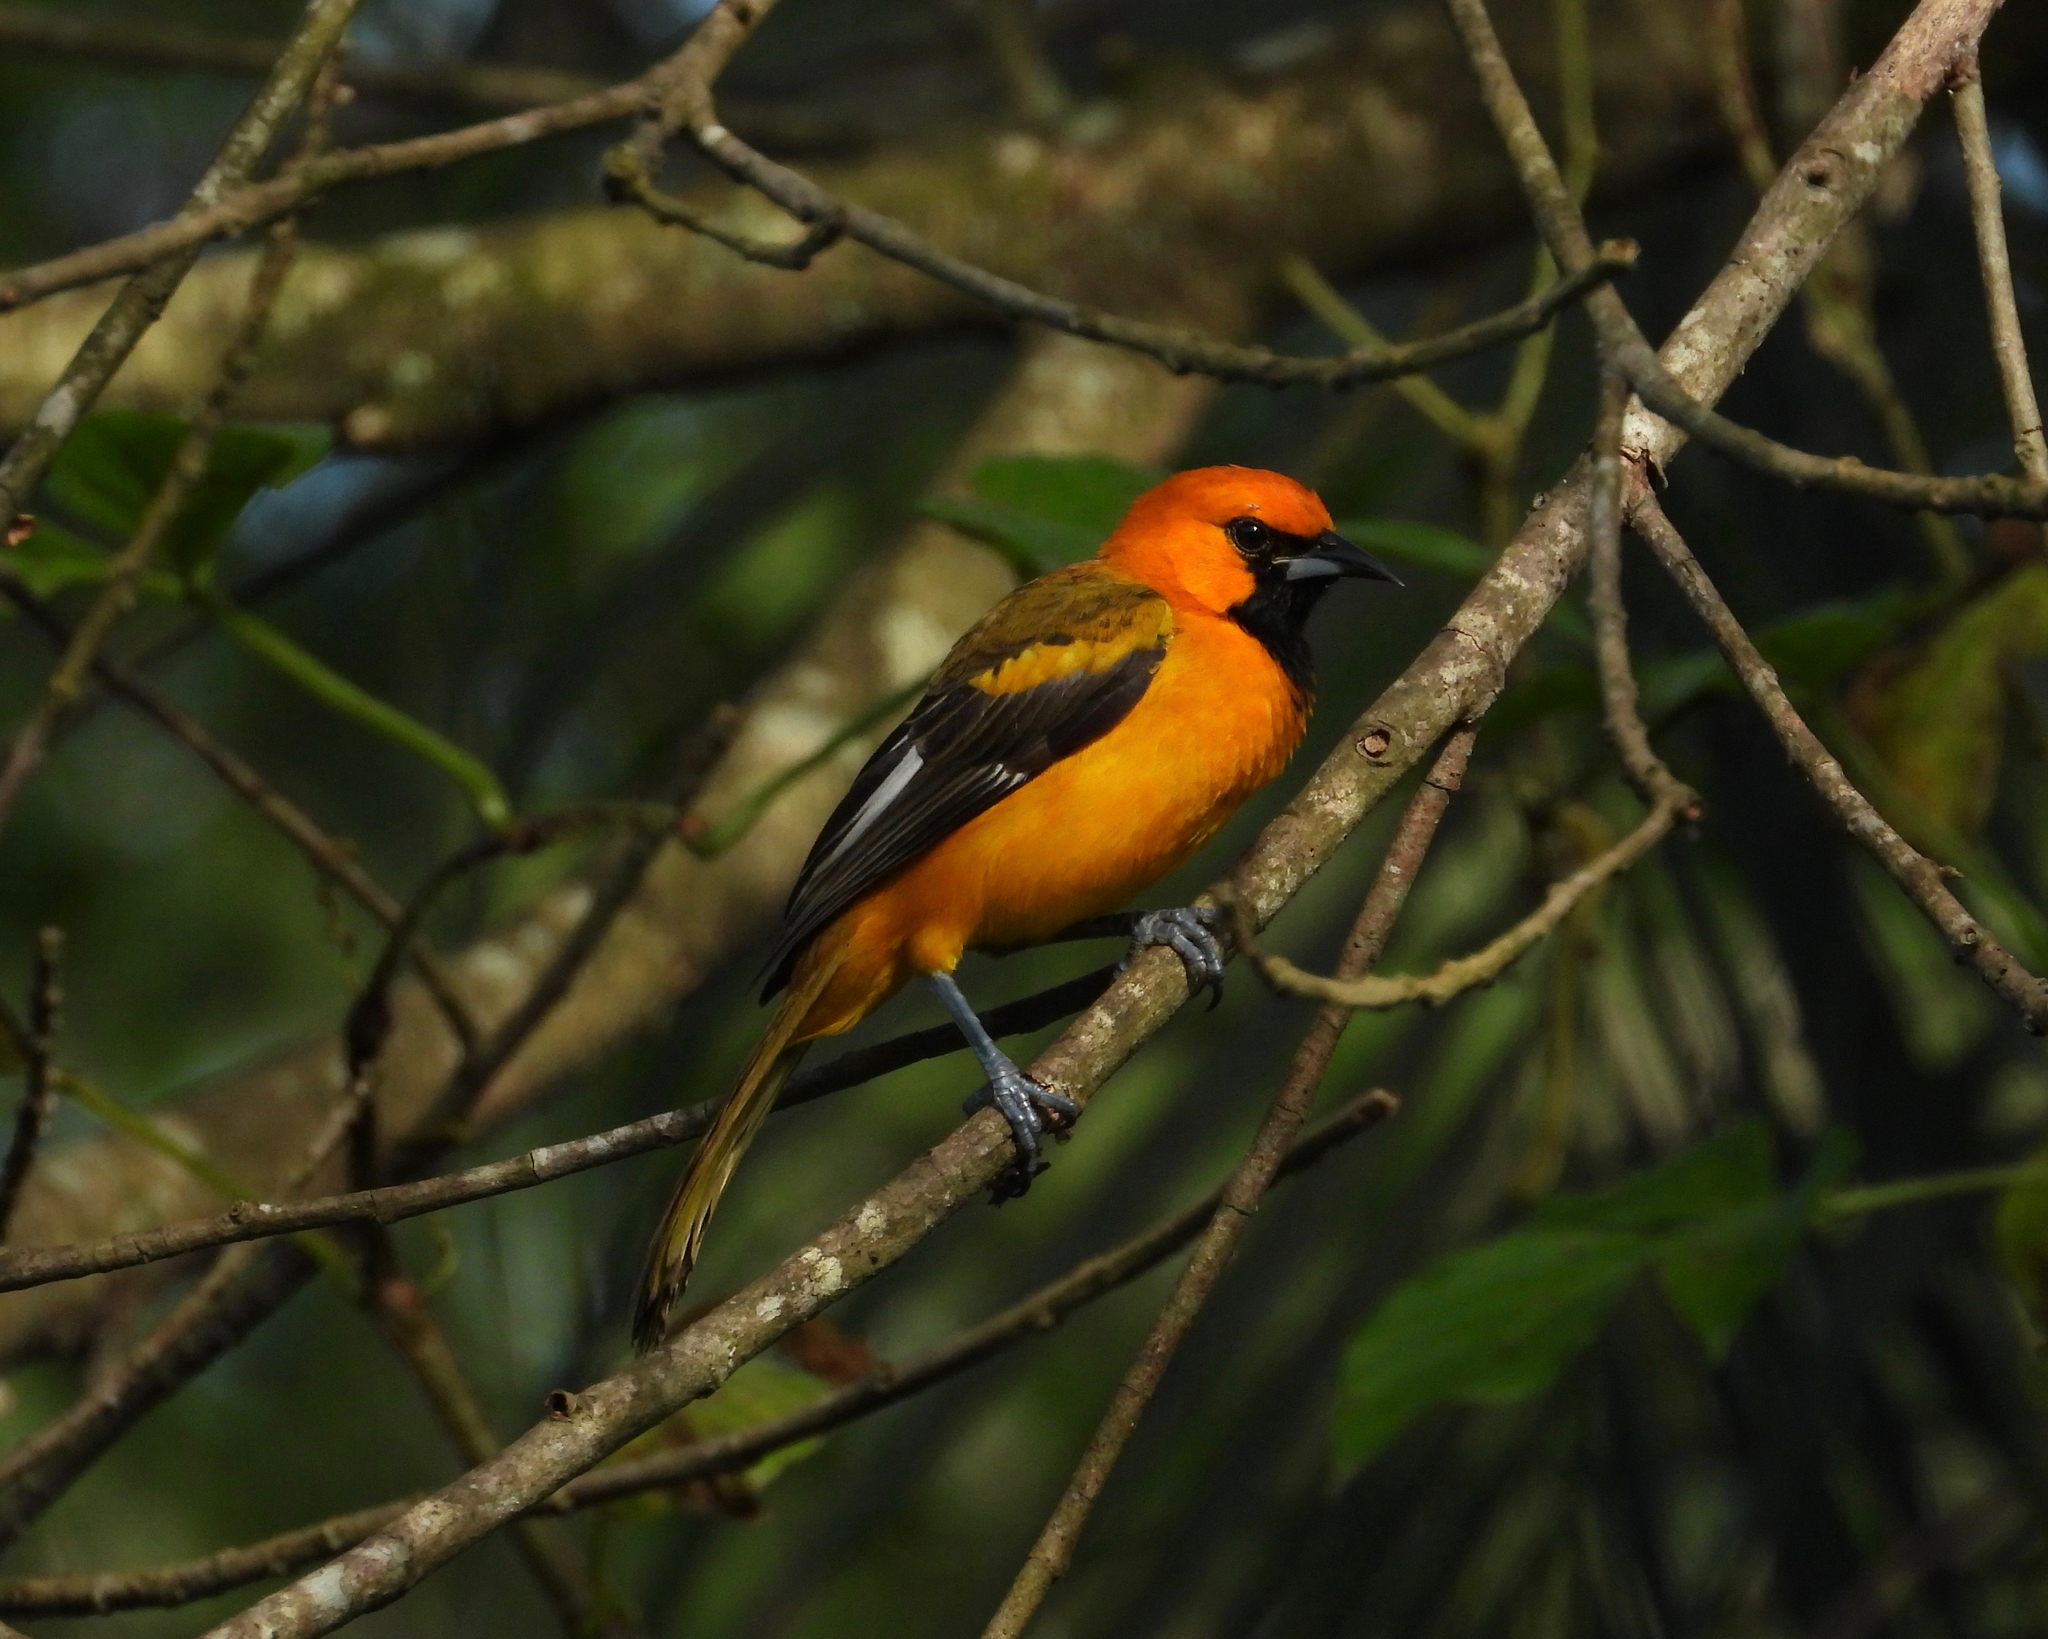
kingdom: Animalia
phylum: Chordata
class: Aves
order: Passeriformes
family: Icteridae
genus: Icterus
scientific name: Icterus pectoralis
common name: Spot-breasted oriole
